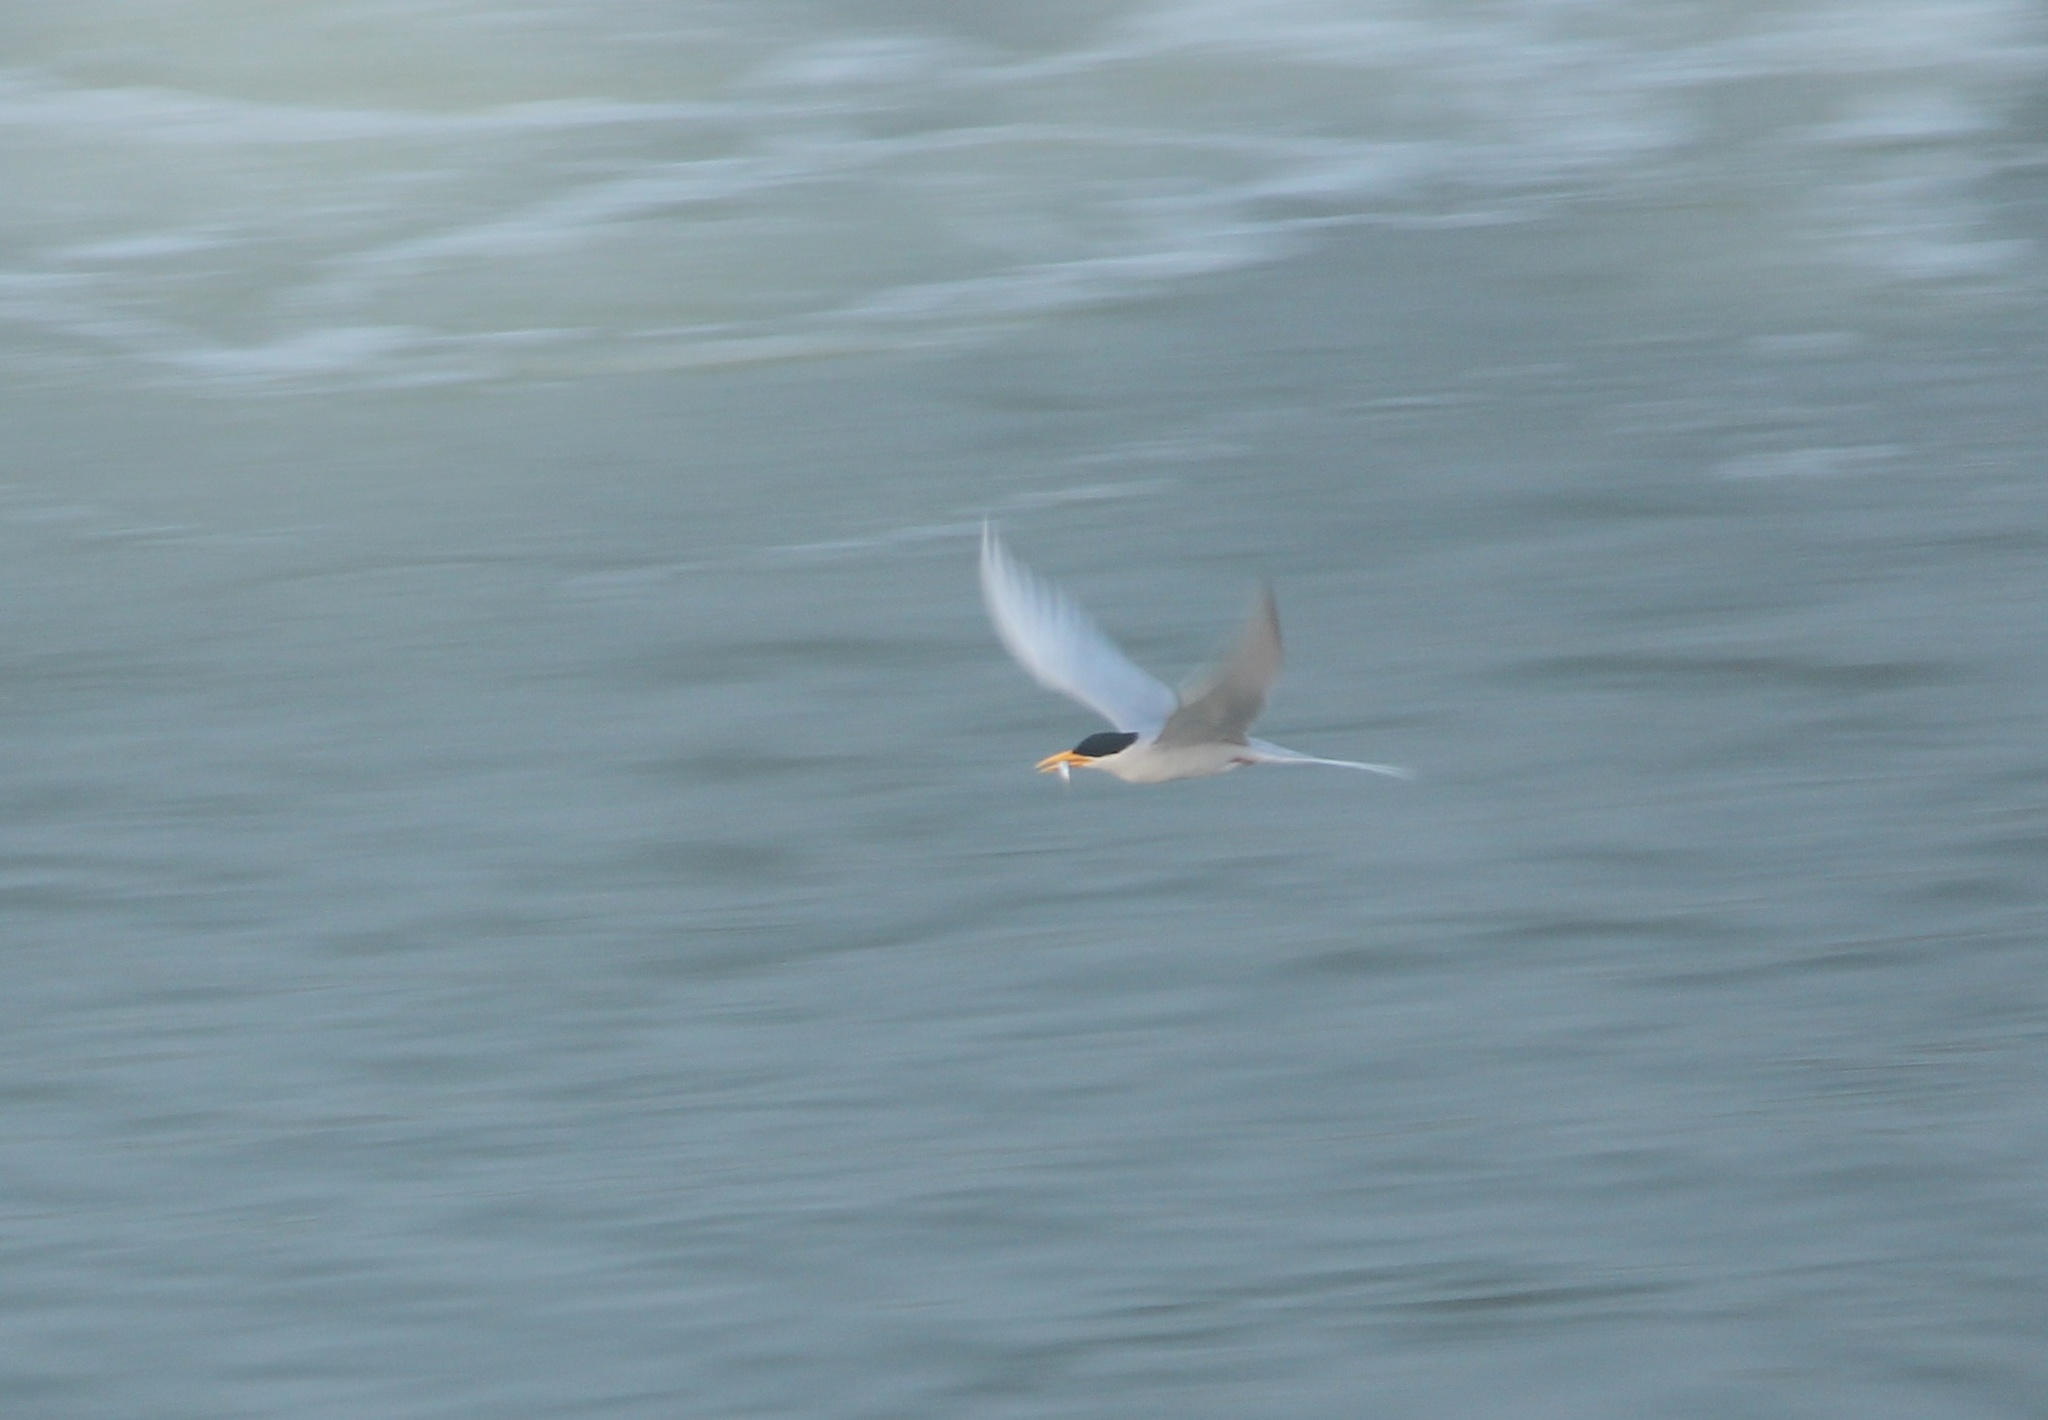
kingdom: Animalia
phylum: Chordata
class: Aves
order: Charadriiformes
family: Laridae
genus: Sterna
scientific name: Sterna aurantia
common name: River tern
